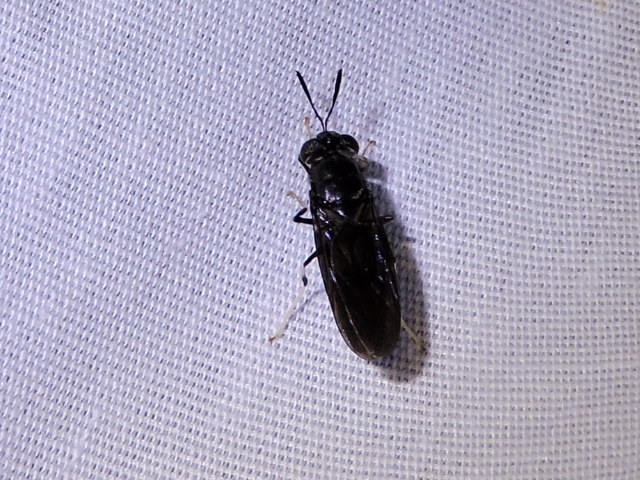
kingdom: Animalia
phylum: Arthropoda
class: Insecta
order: Diptera
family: Stratiomyidae
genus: Hermetia
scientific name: Hermetia illucens
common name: Black soldier fly
